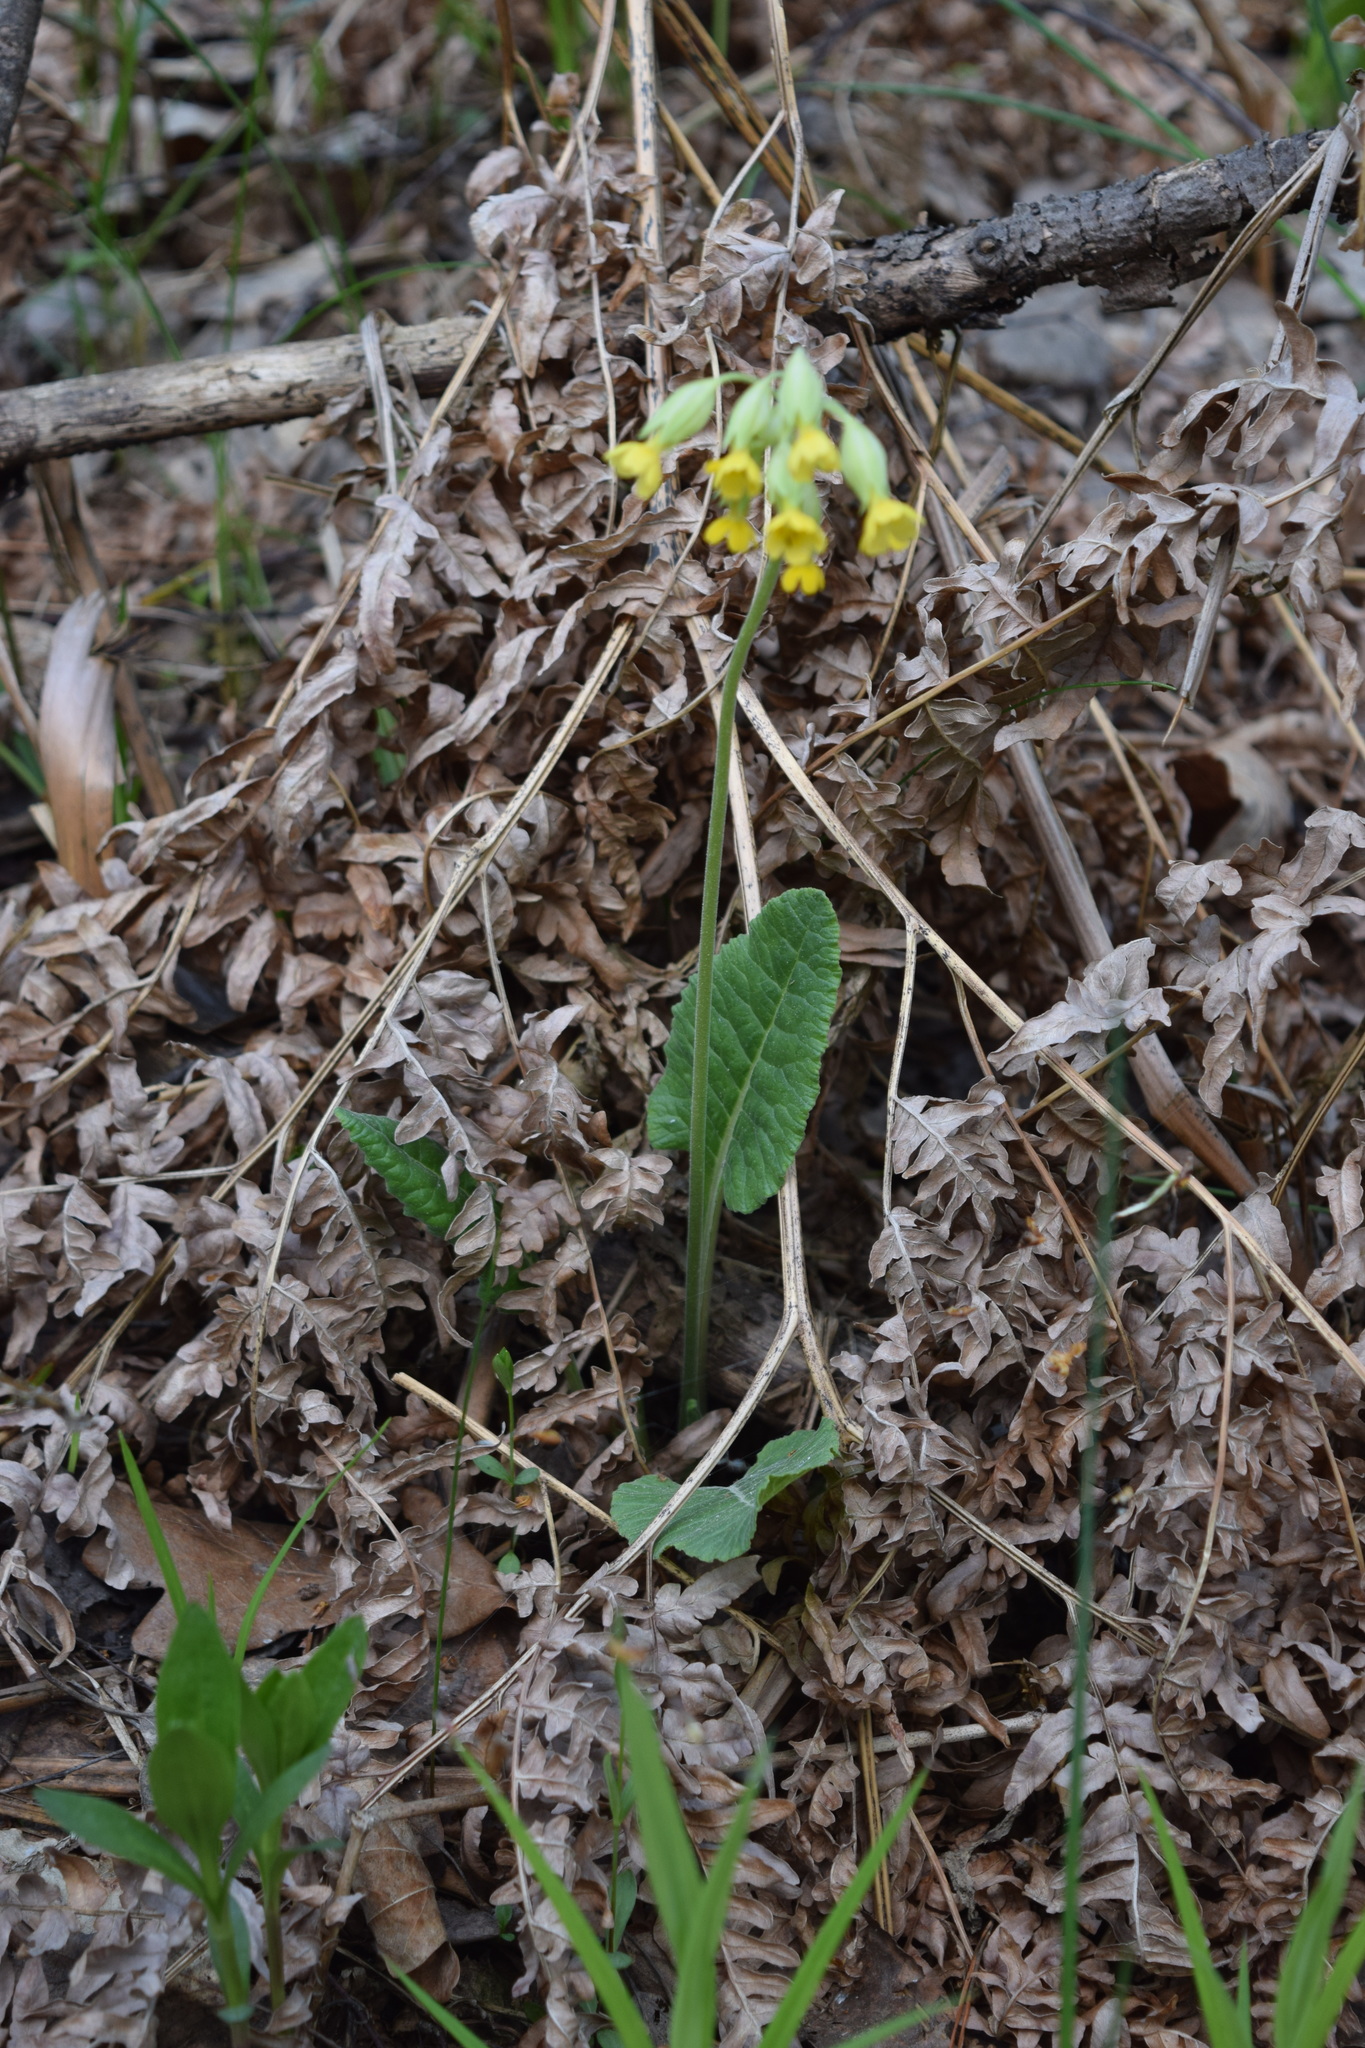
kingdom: Plantae
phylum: Tracheophyta
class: Magnoliopsida
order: Ericales
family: Primulaceae
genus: Primula
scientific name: Primula veris
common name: Cowslip
